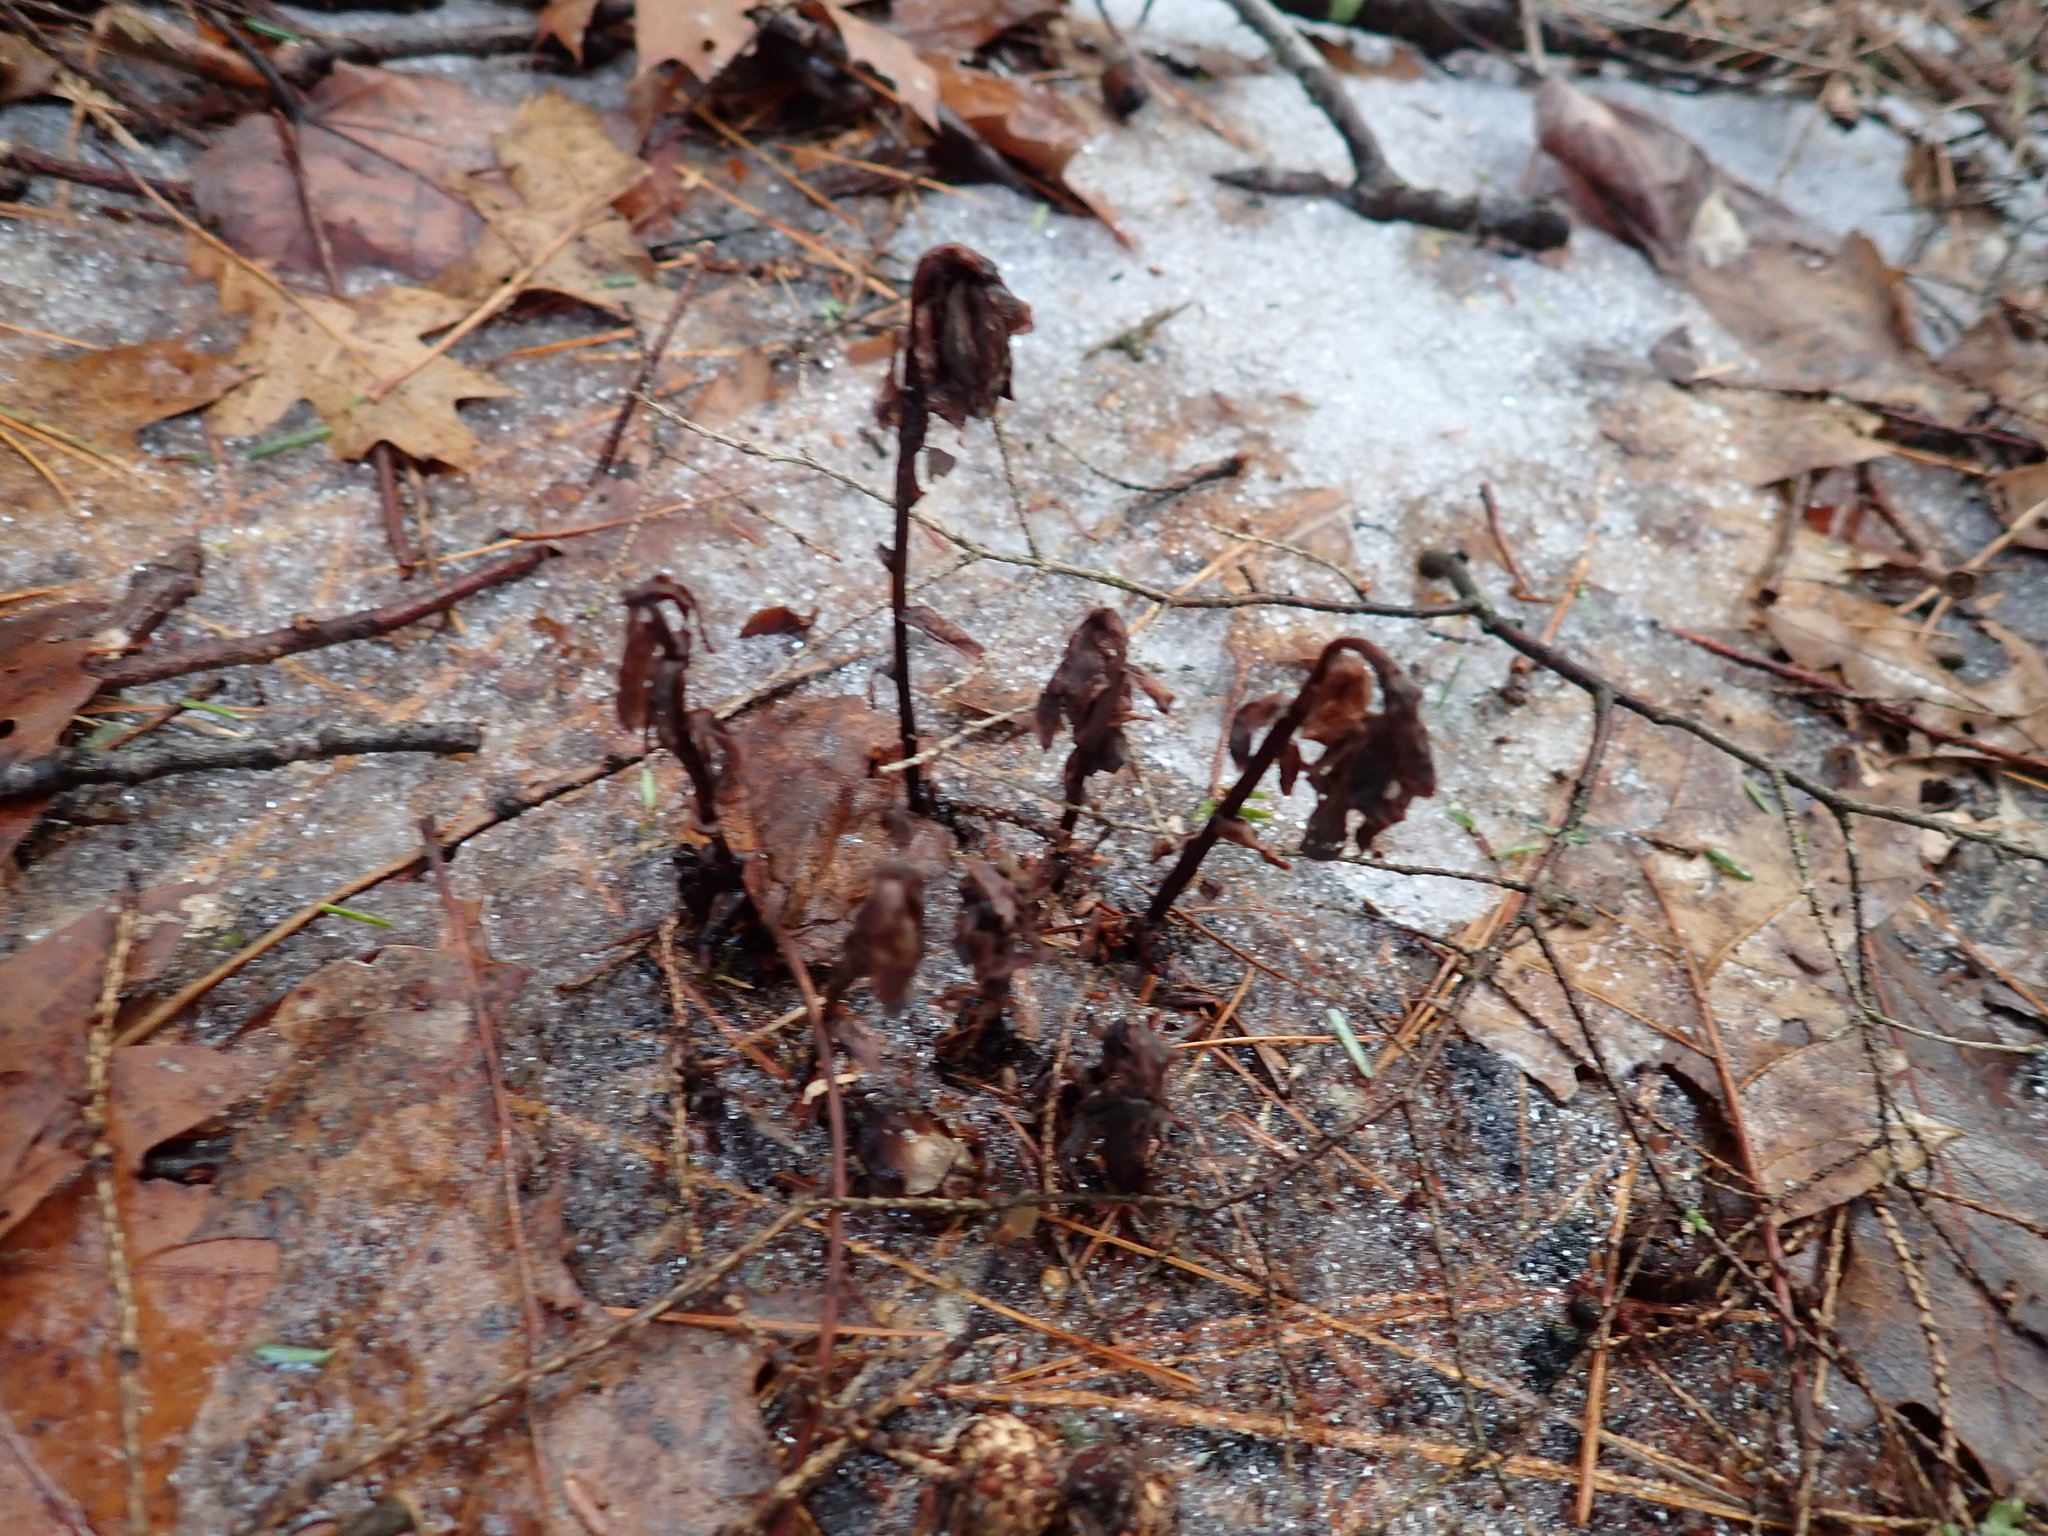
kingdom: Plantae
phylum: Tracheophyta
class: Magnoliopsida
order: Ericales
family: Ericaceae
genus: Monotropa
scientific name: Monotropa uniflora
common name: Convulsion root
